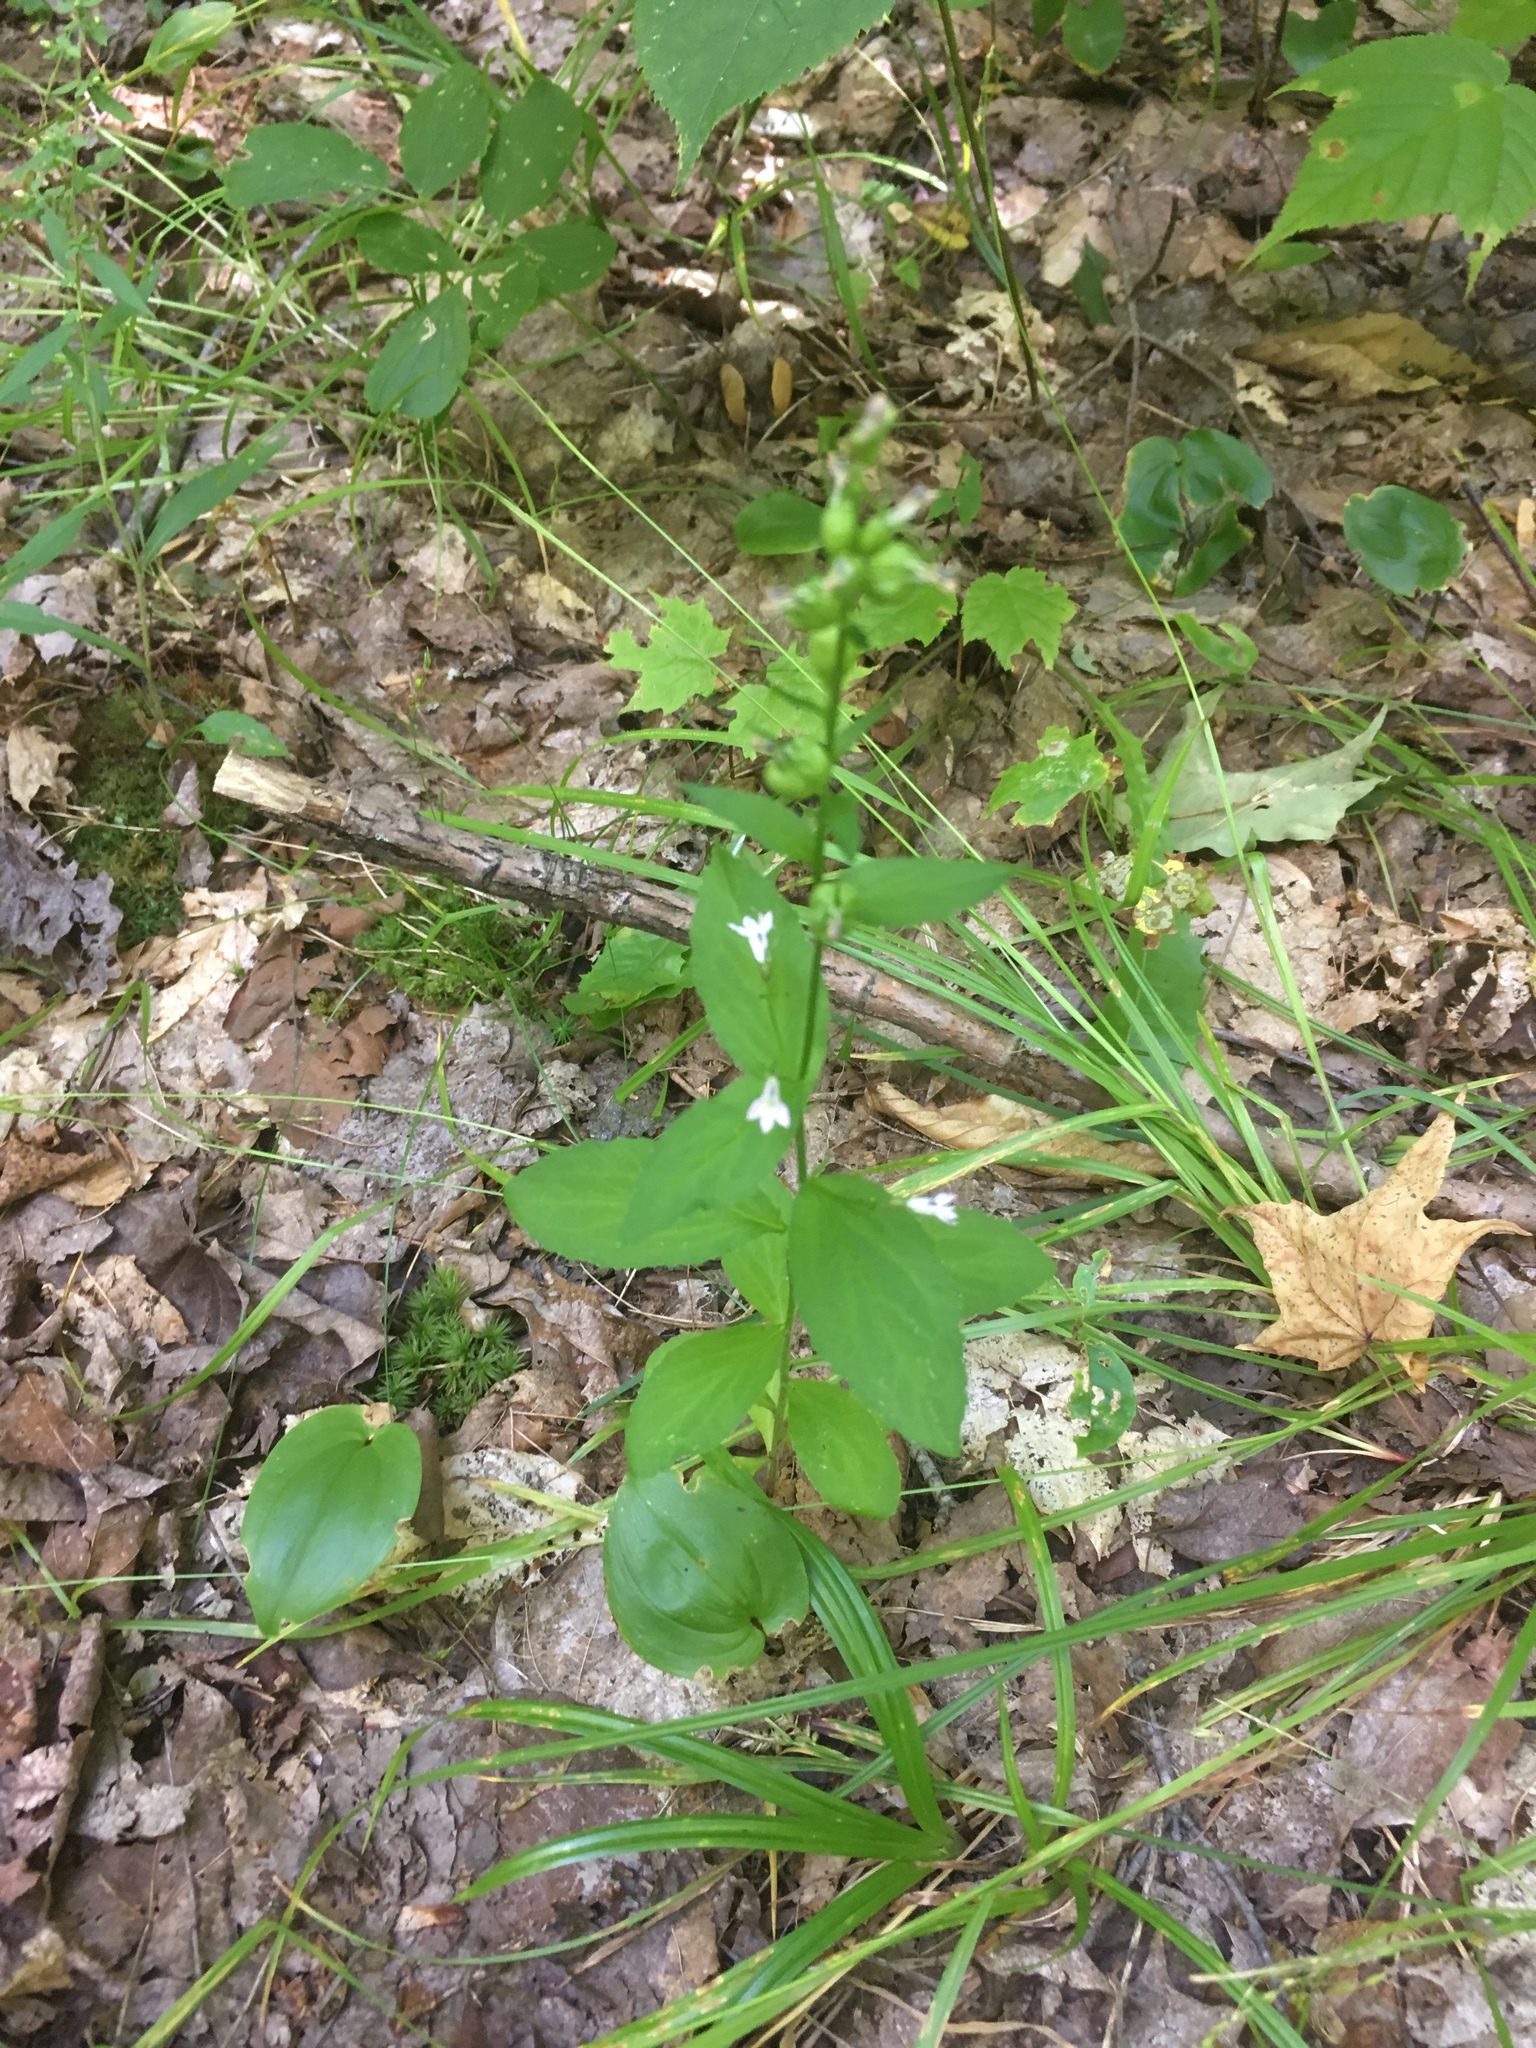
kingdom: Plantae
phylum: Tracheophyta
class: Magnoliopsida
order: Asterales
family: Campanulaceae
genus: Lobelia
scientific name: Lobelia inflata
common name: Indian tobacco
